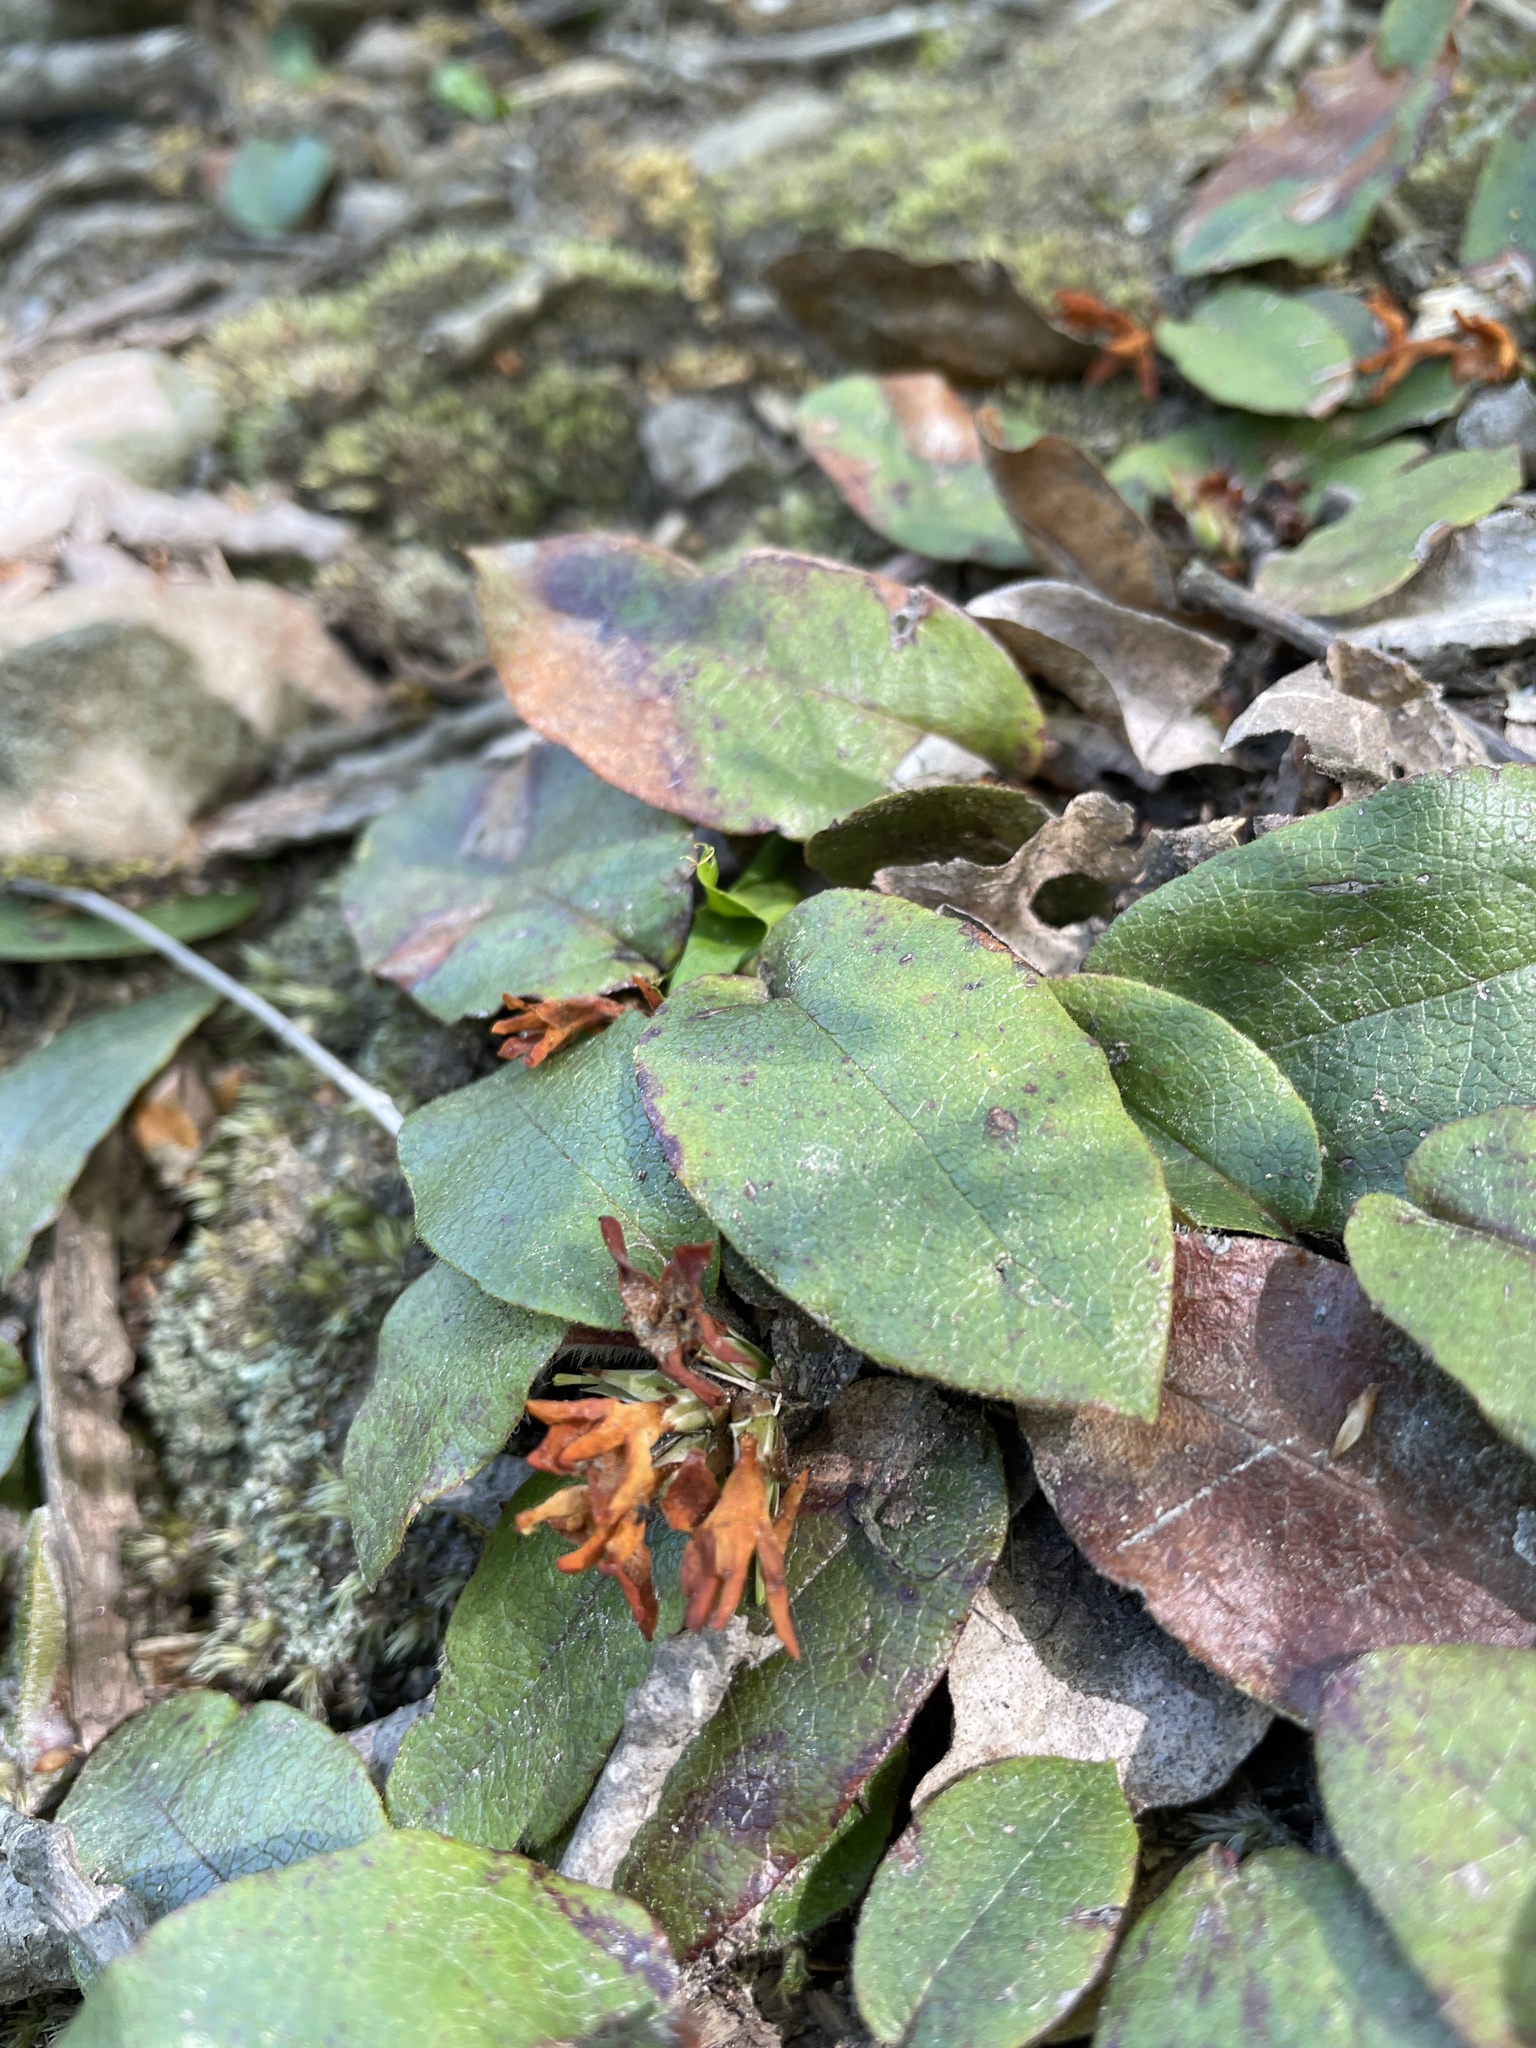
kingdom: Plantae
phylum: Tracheophyta
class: Magnoliopsida
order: Ericales
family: Ericaceae
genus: Epigaea
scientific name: Epigaea repens
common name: Gravelroot
